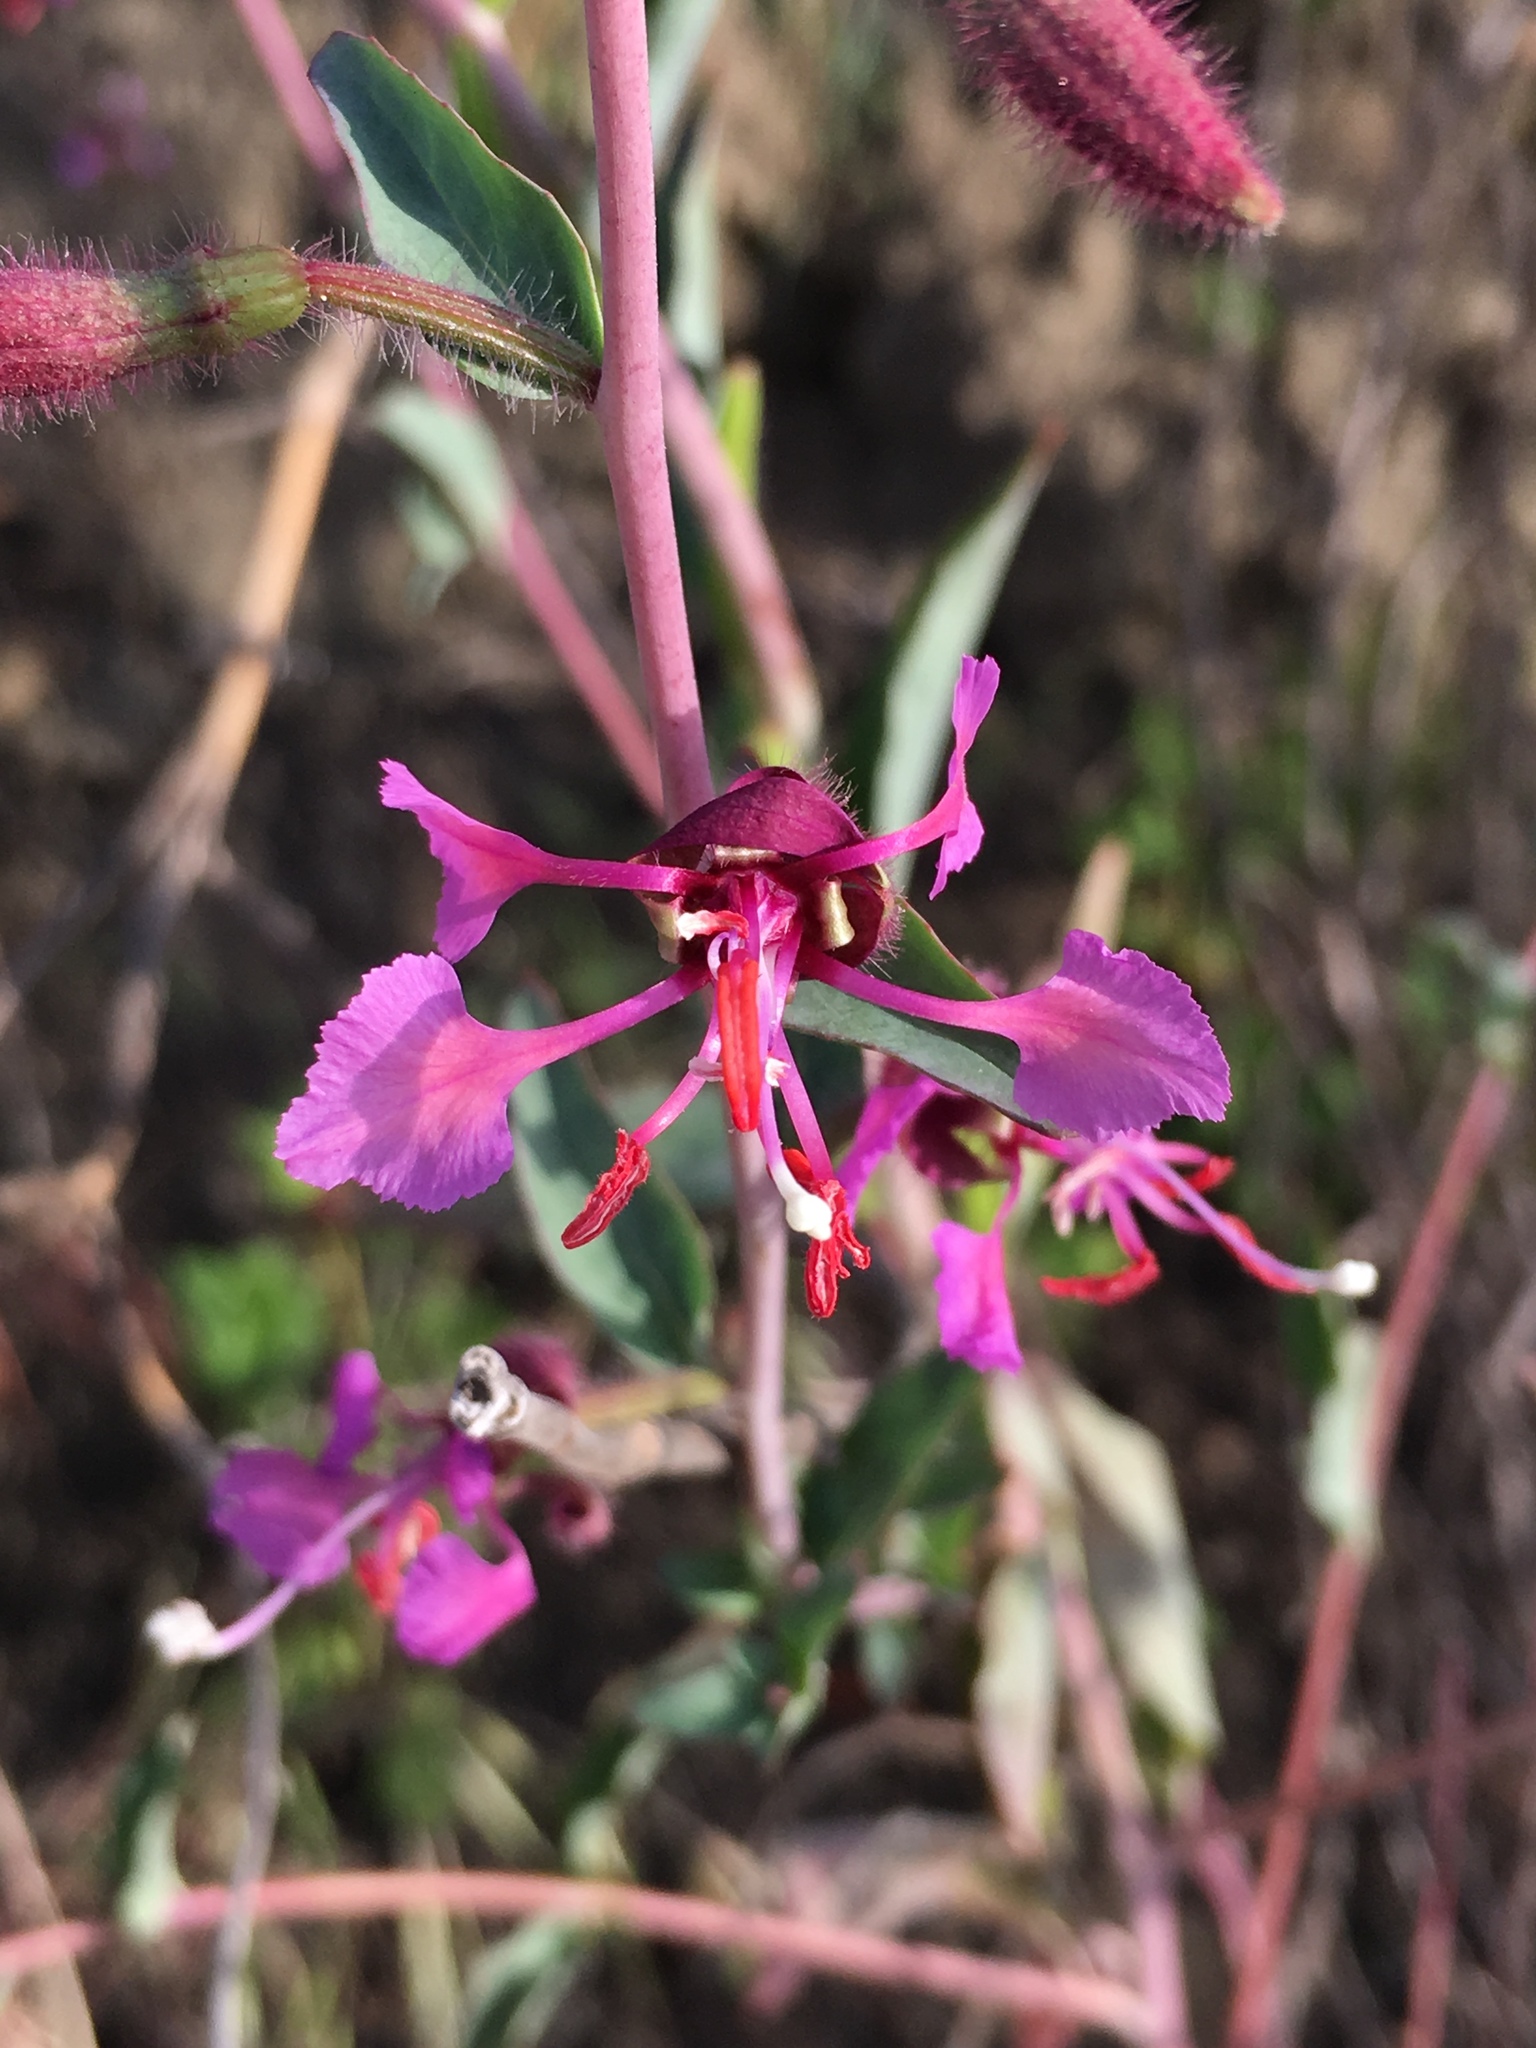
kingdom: Plantae
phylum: Tracheophyta
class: Magnoliopsida
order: Myrtales
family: Onagraceae
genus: Clarkia
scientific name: Clarkia unguiculata
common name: Clarkia
